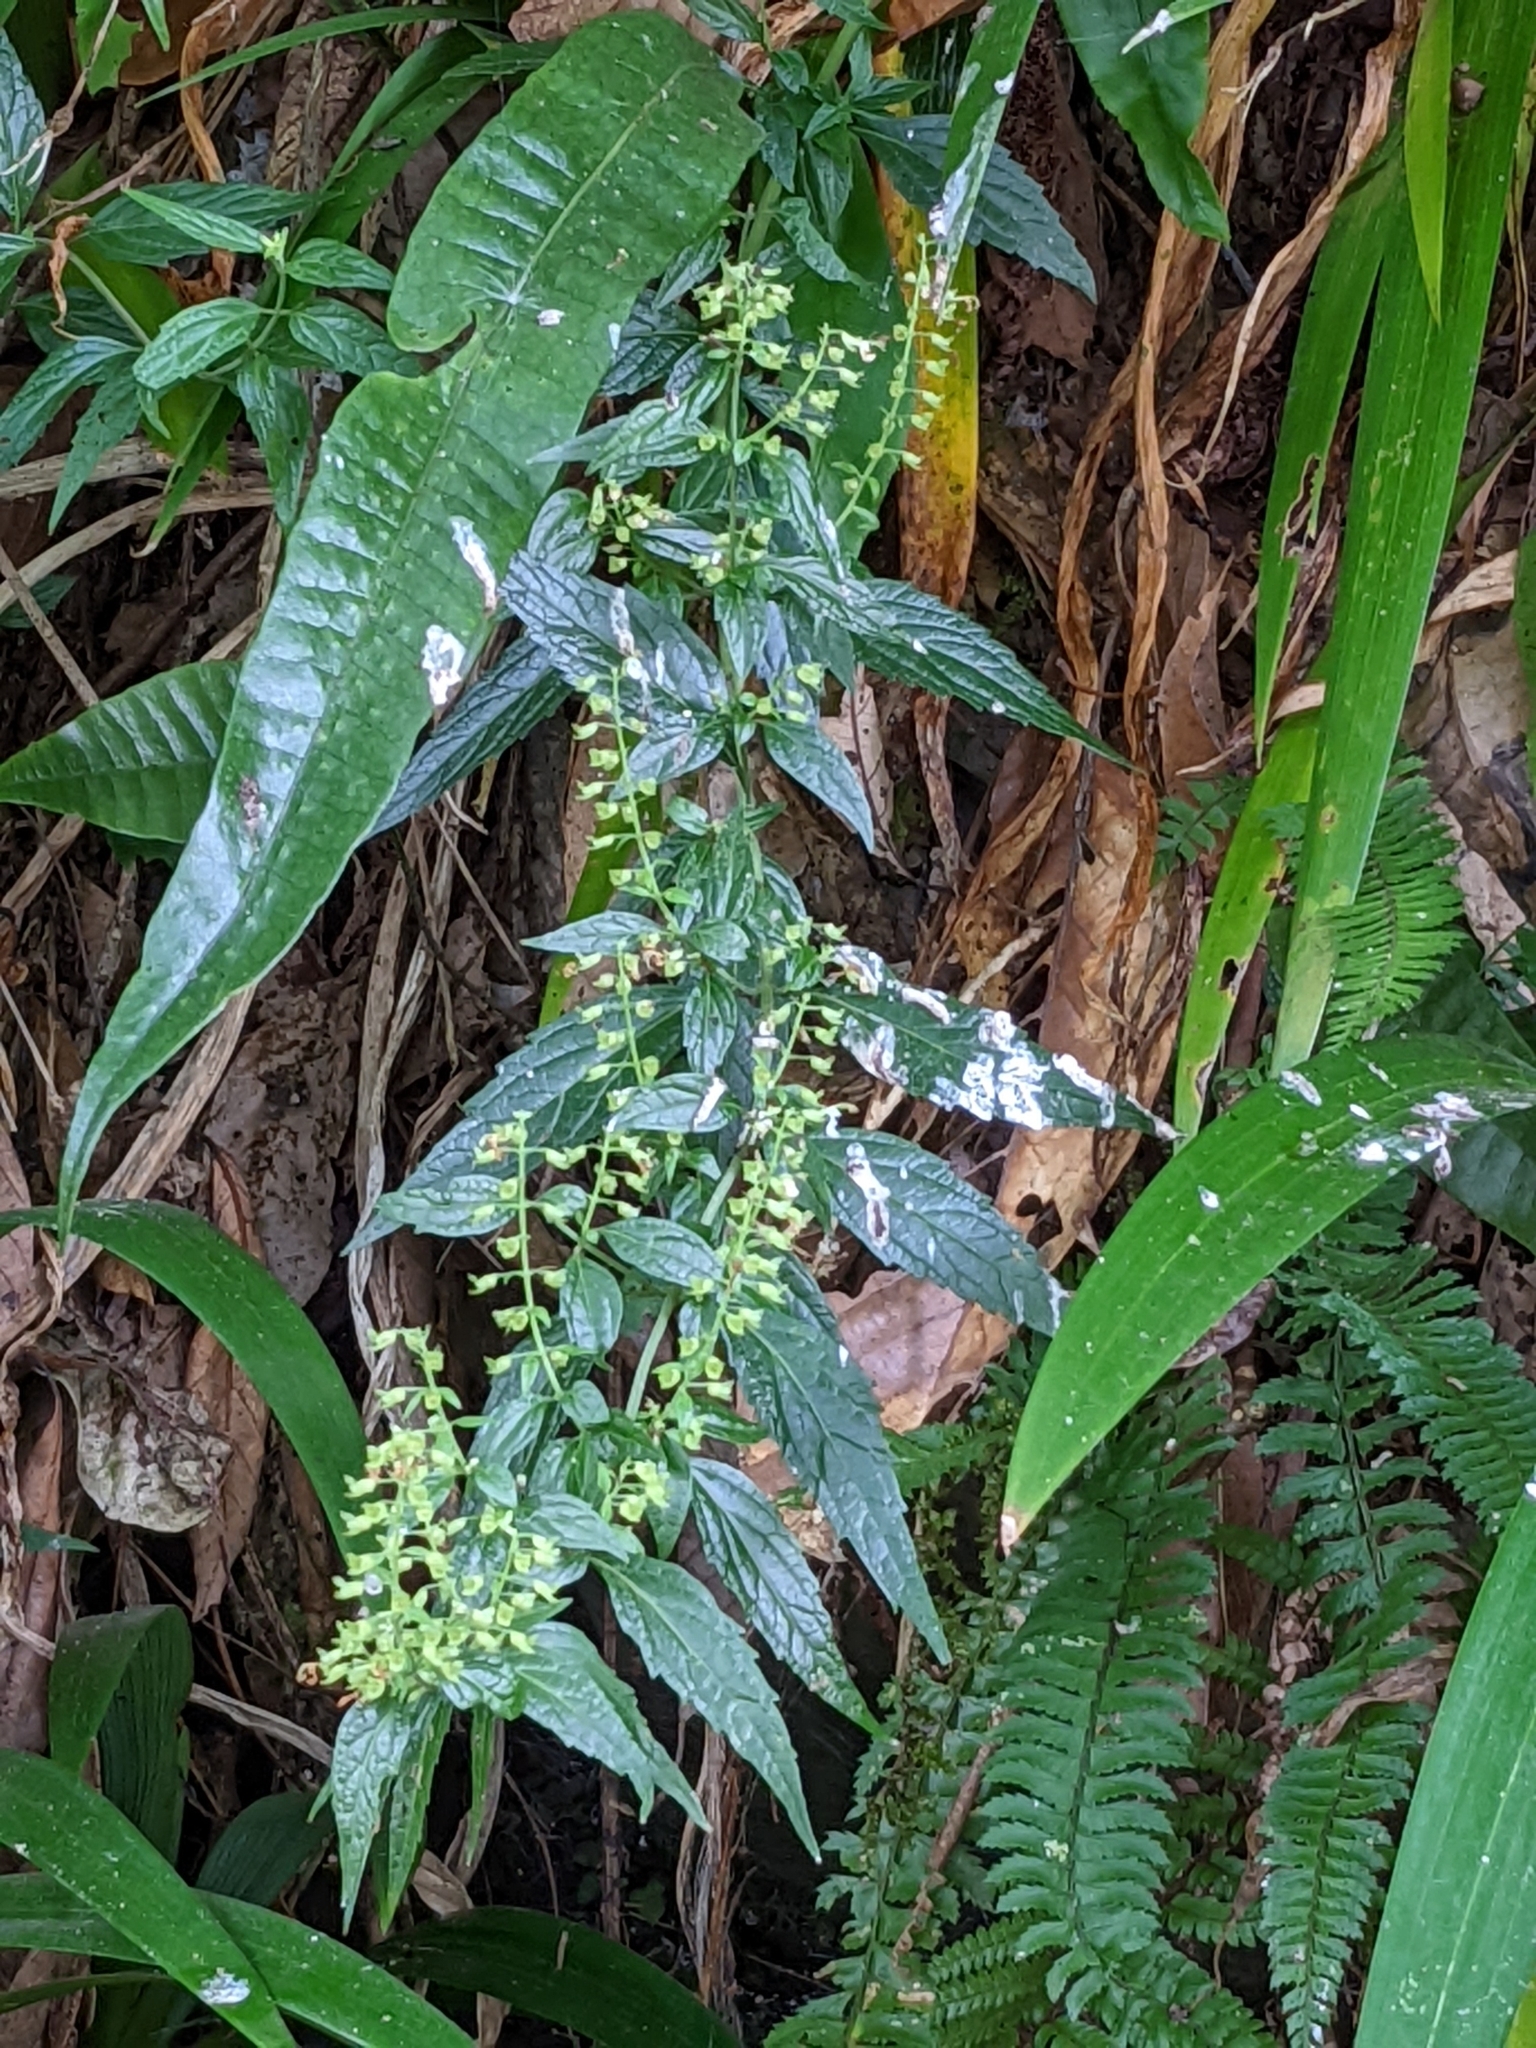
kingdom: Plantae
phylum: Tracheophyta
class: Magnoliopsida
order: Lamiales
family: Lamiaceae
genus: Teucrium
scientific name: Teucrium bidentatum
